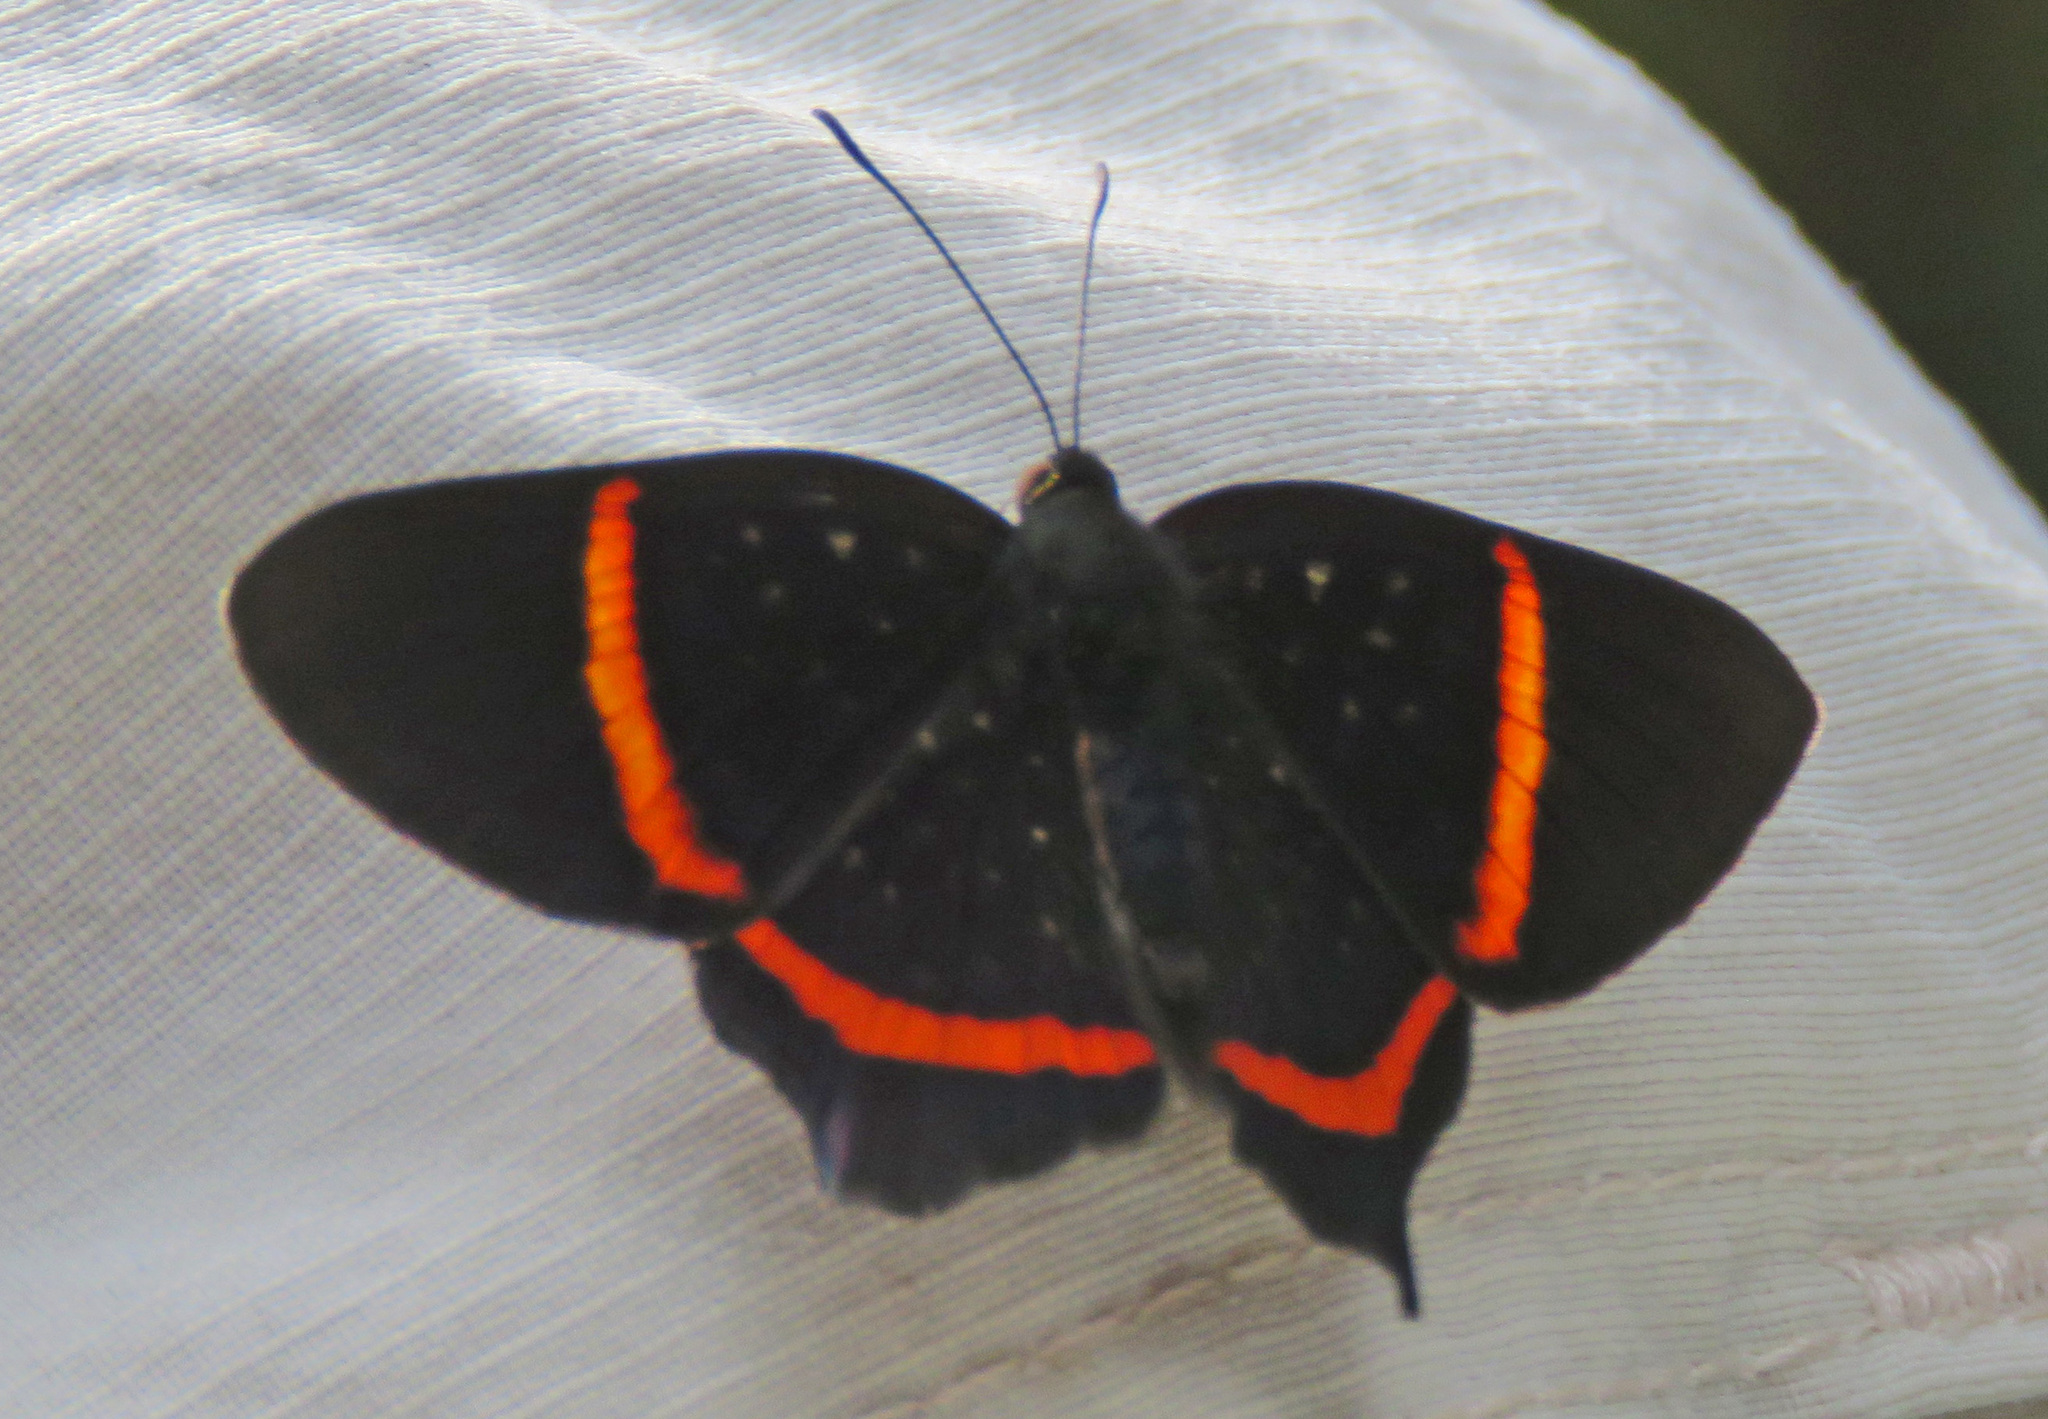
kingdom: Animalia
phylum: Arthropoda
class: Insecta
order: Lepidoptera
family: Riodinidae
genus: Riodina
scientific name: Riodina lysippus
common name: Lysippus metalmark
